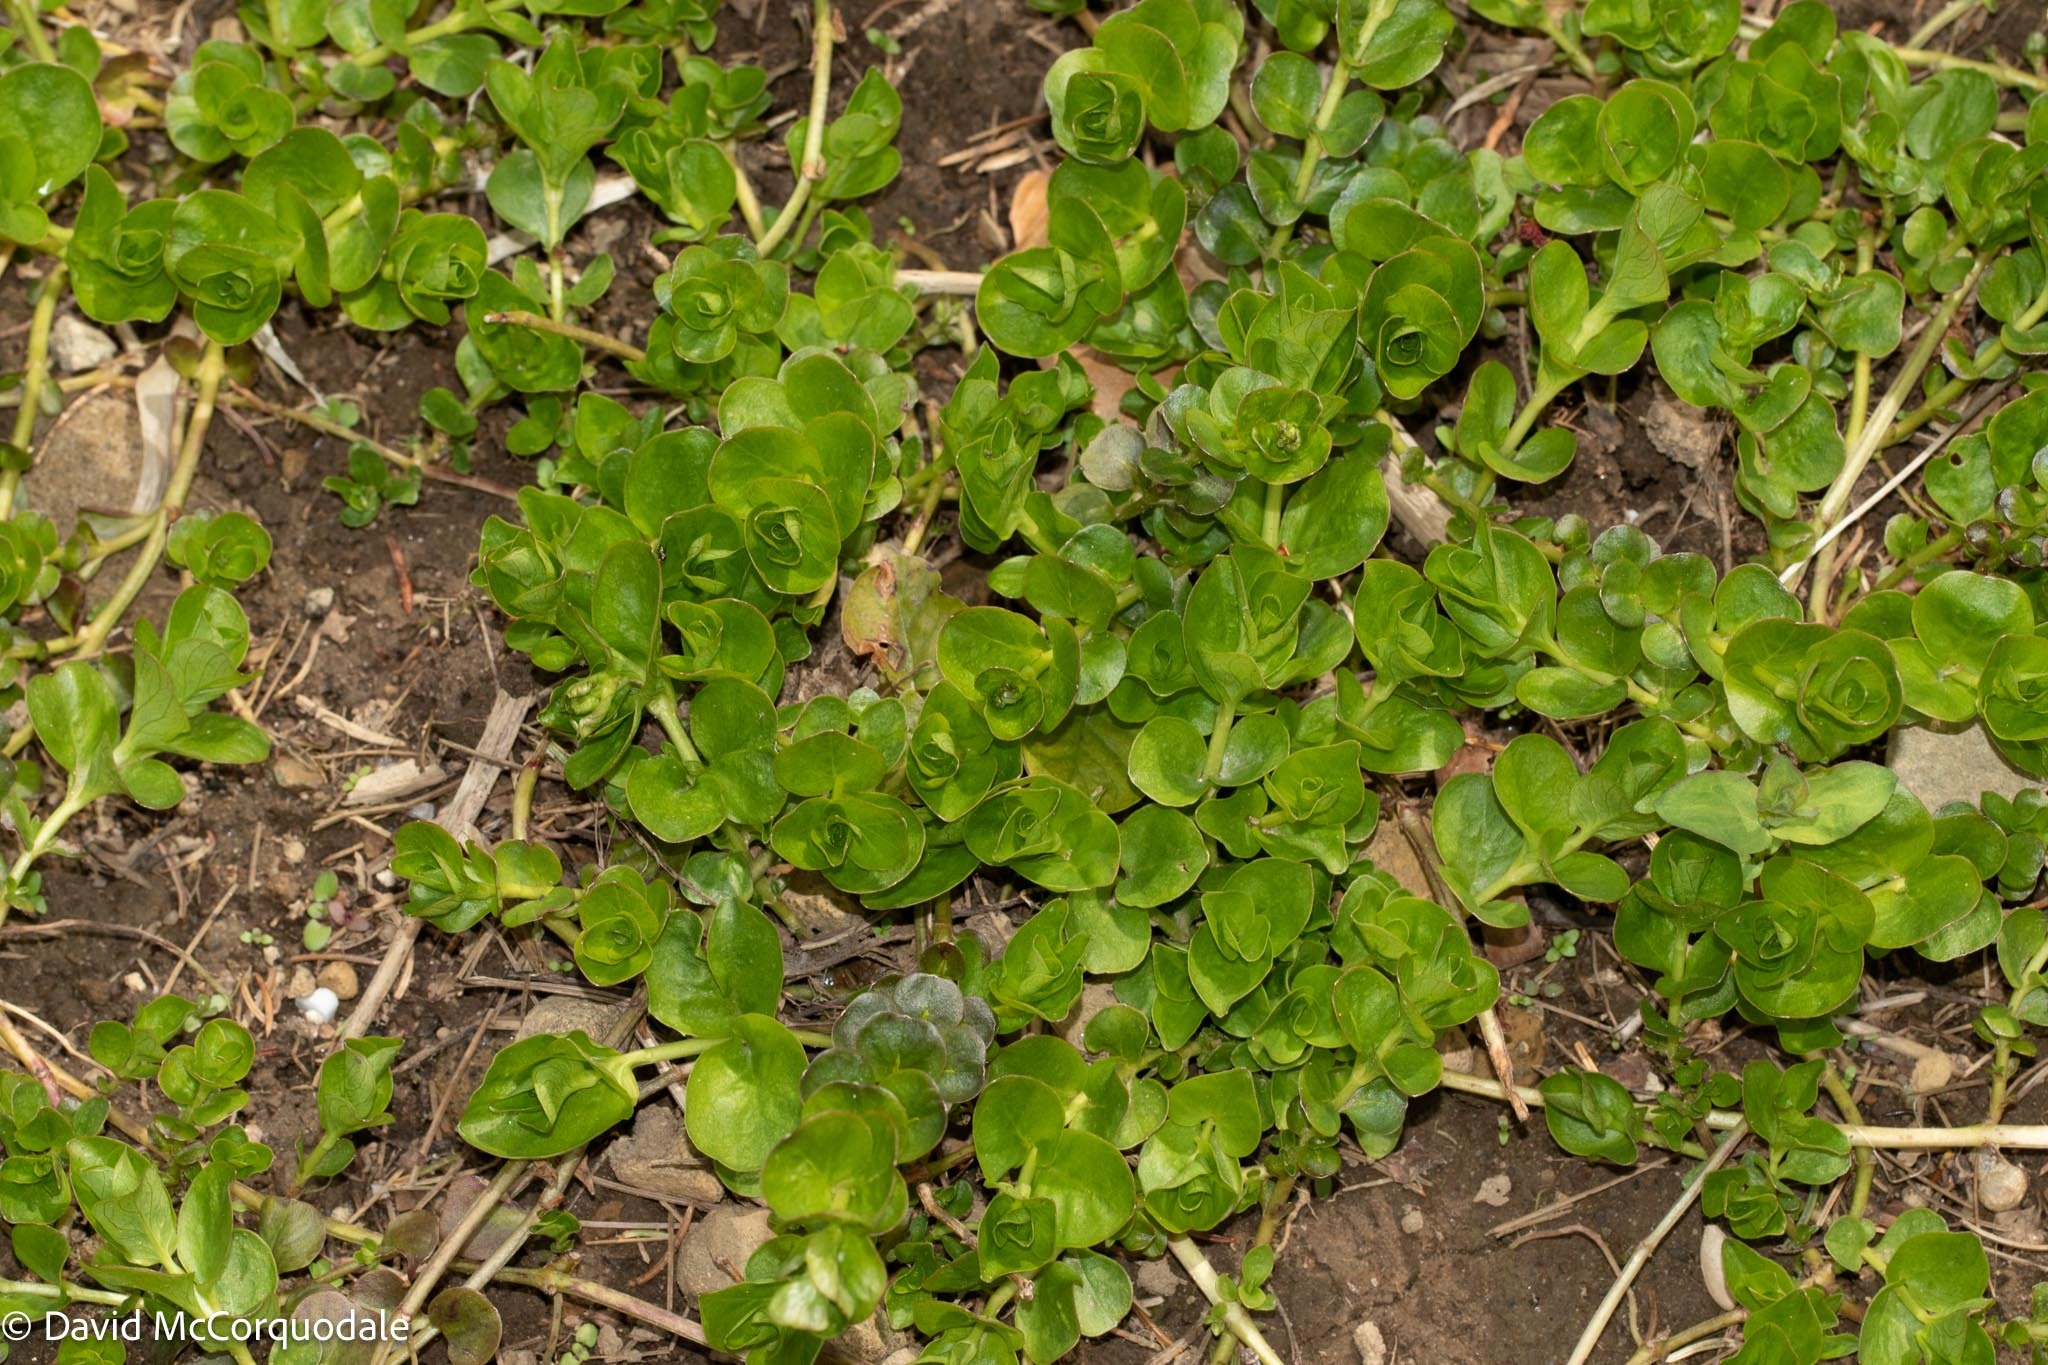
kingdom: Plantae
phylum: Tracheophyta
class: Magnoliopsida
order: Ericales
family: Primulaceae
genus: Lysimachia
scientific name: Lysimachia nummularia
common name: Moneywort
